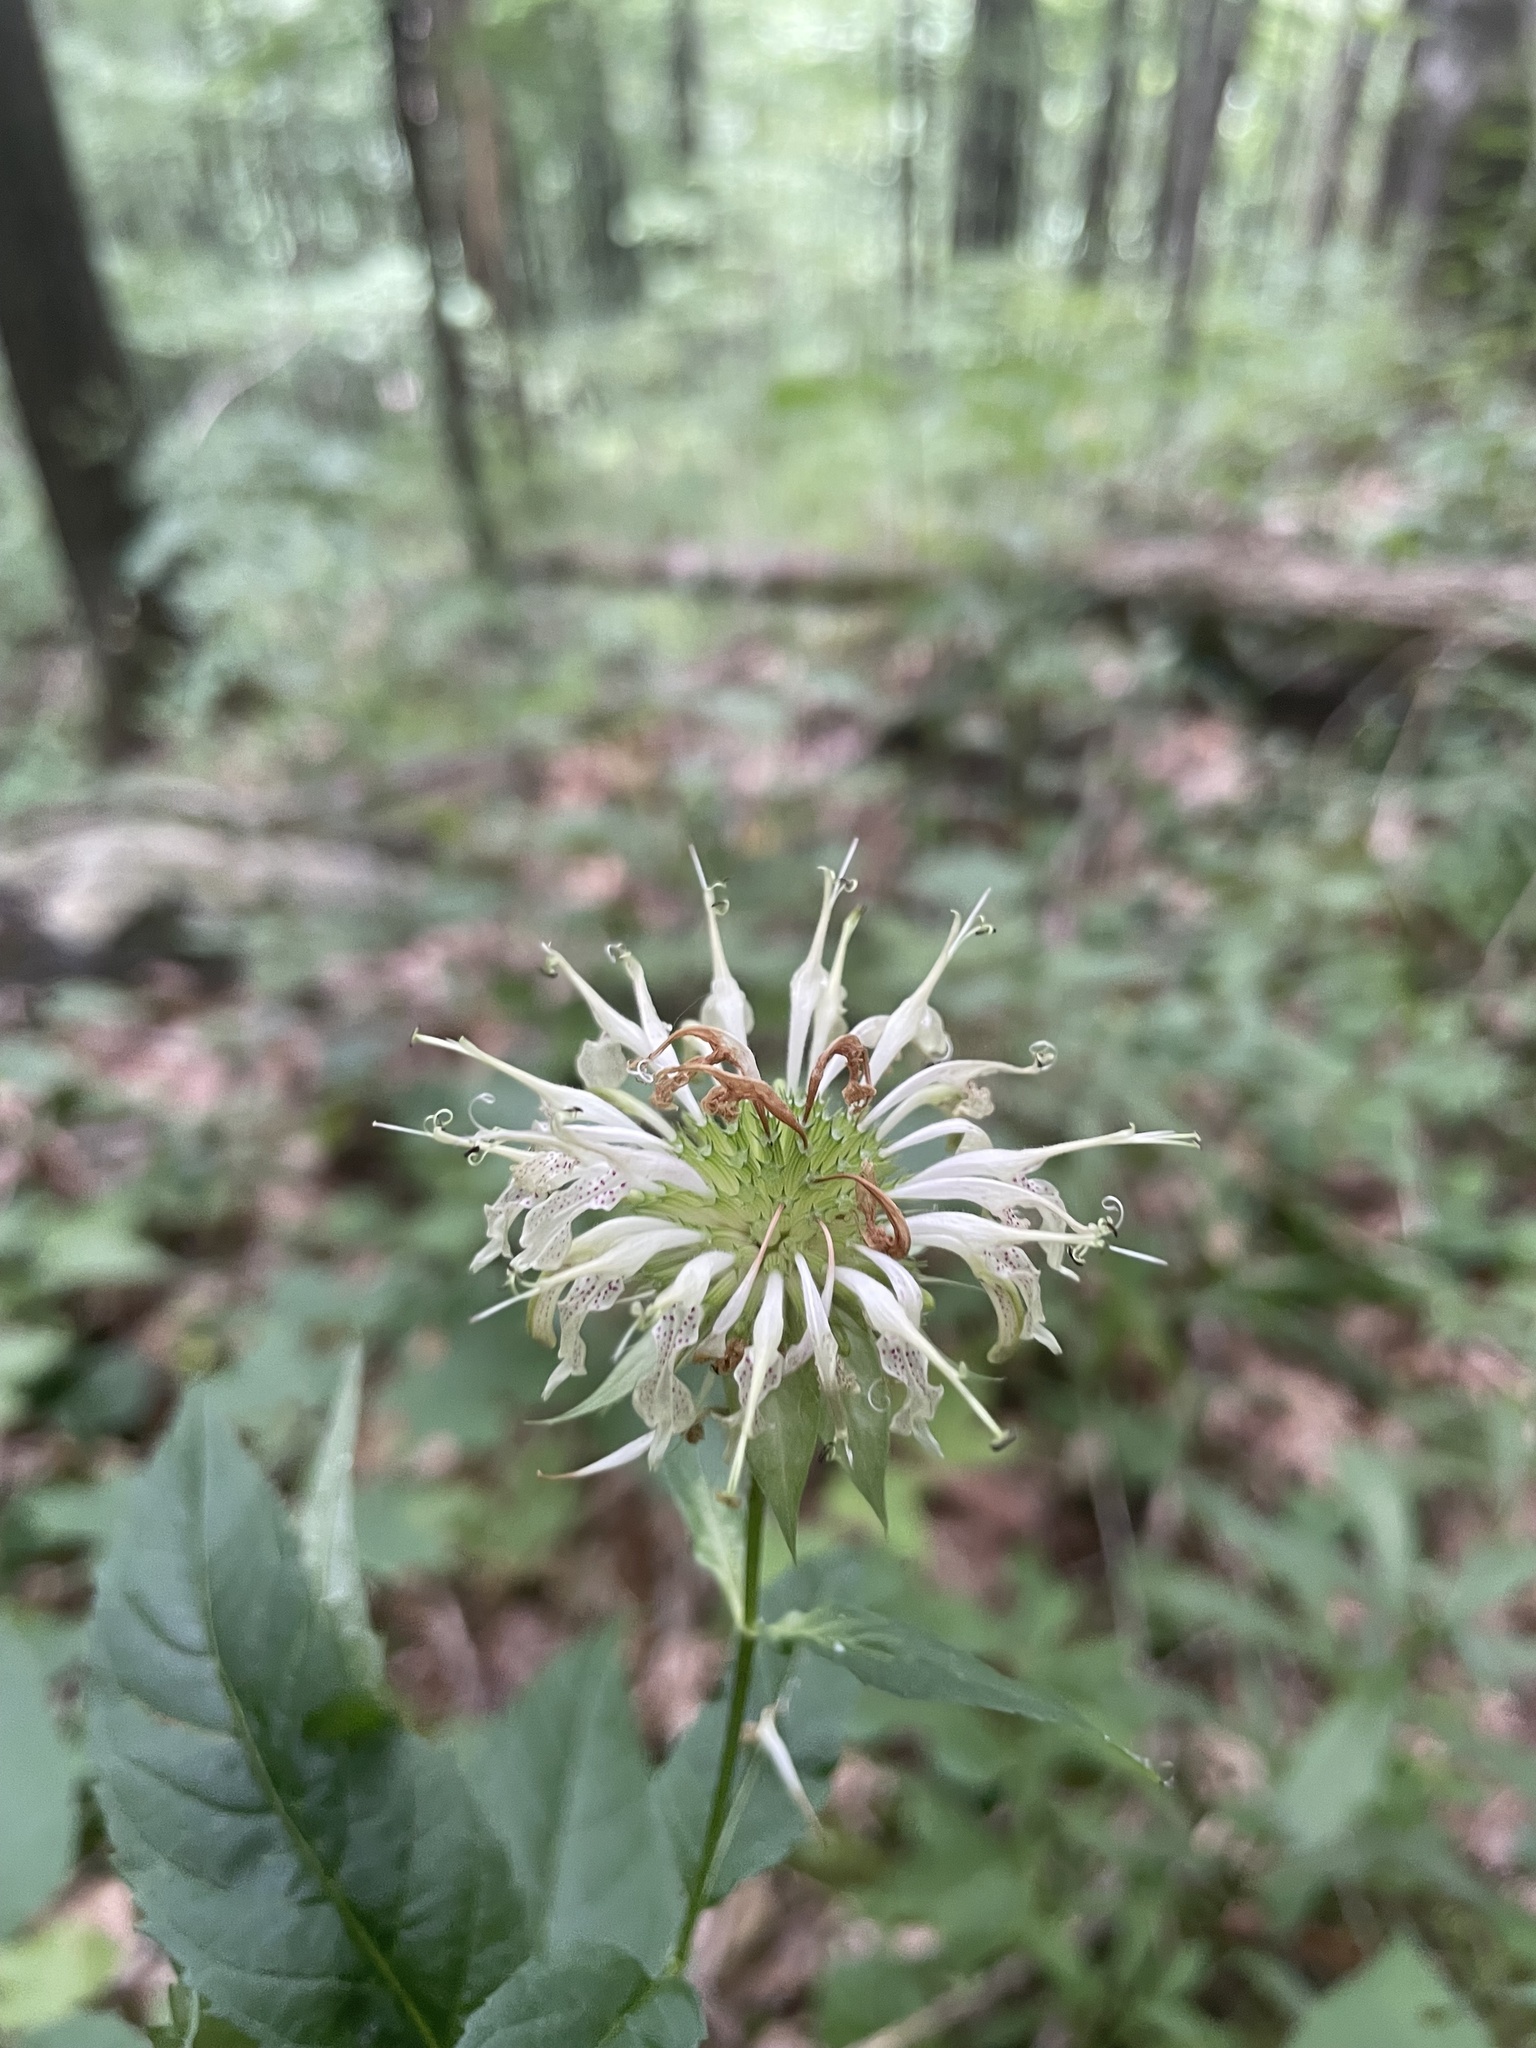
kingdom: Plantae
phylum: Tracheophyta
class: Magnoliopsida
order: Lamiales
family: Lamiaceae
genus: Monarda
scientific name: Monarda clinopodia
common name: Basil beebalm
